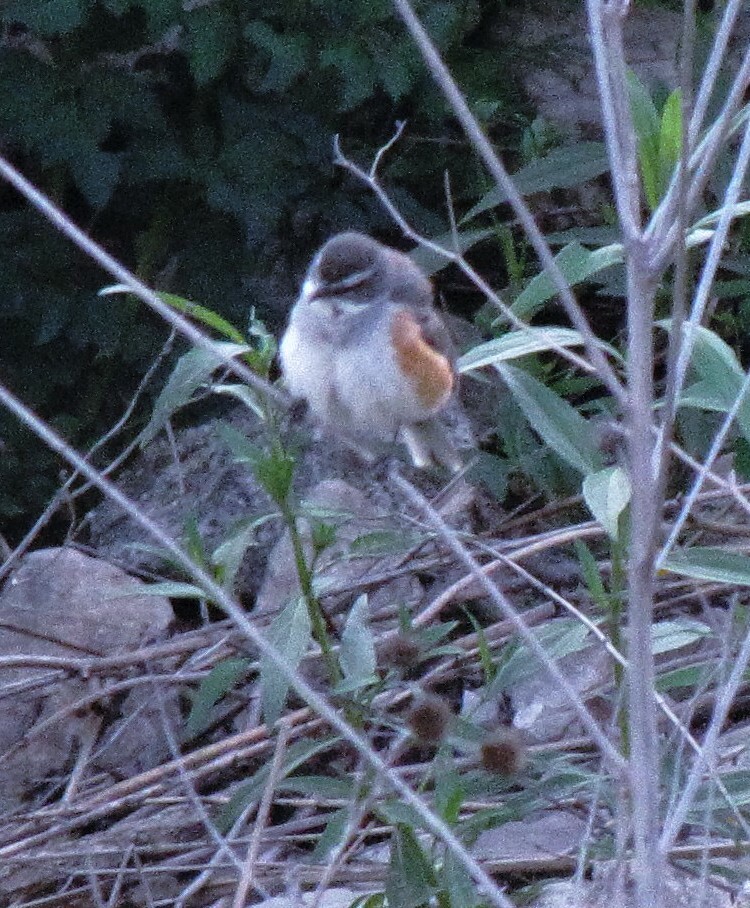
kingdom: Animalia
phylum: Chordata
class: Aves
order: Passeriformes
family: Thraupidae
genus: Poospizopsis
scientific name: Poospizopsis hypocondria
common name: Rufous-sided warbling-finch
